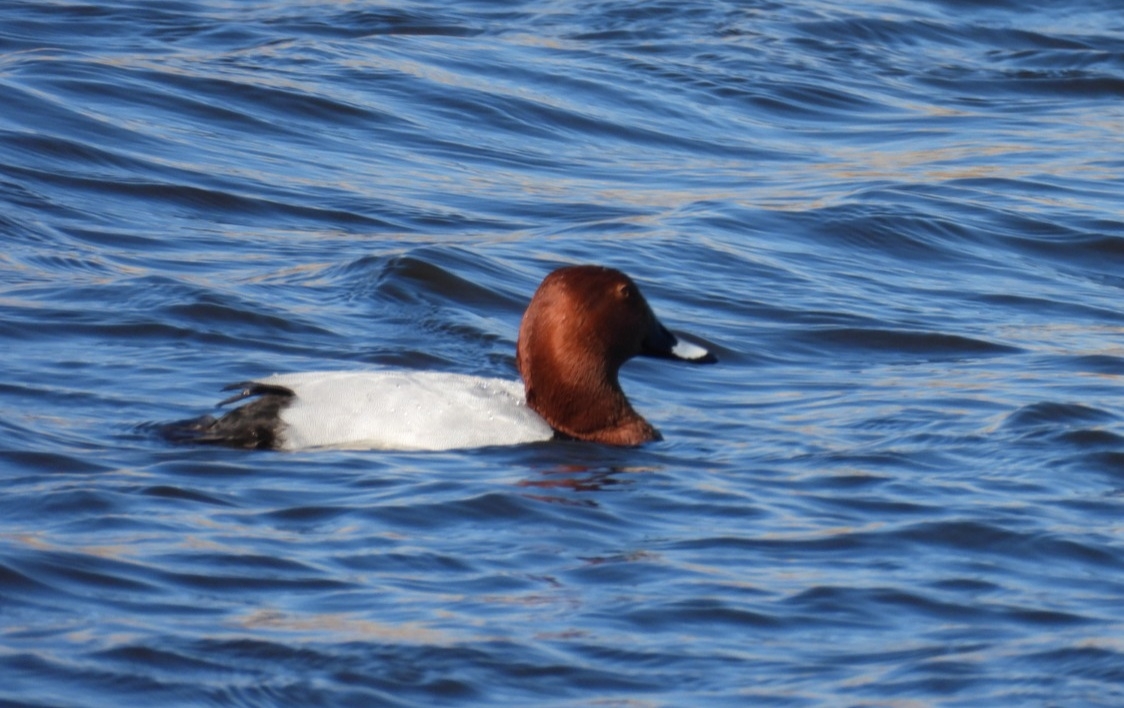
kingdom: Animalia
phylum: Chordata
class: Aves
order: Anseriformes
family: Anatidae
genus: Aythya
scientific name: Aythya ferina
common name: Common pochard
